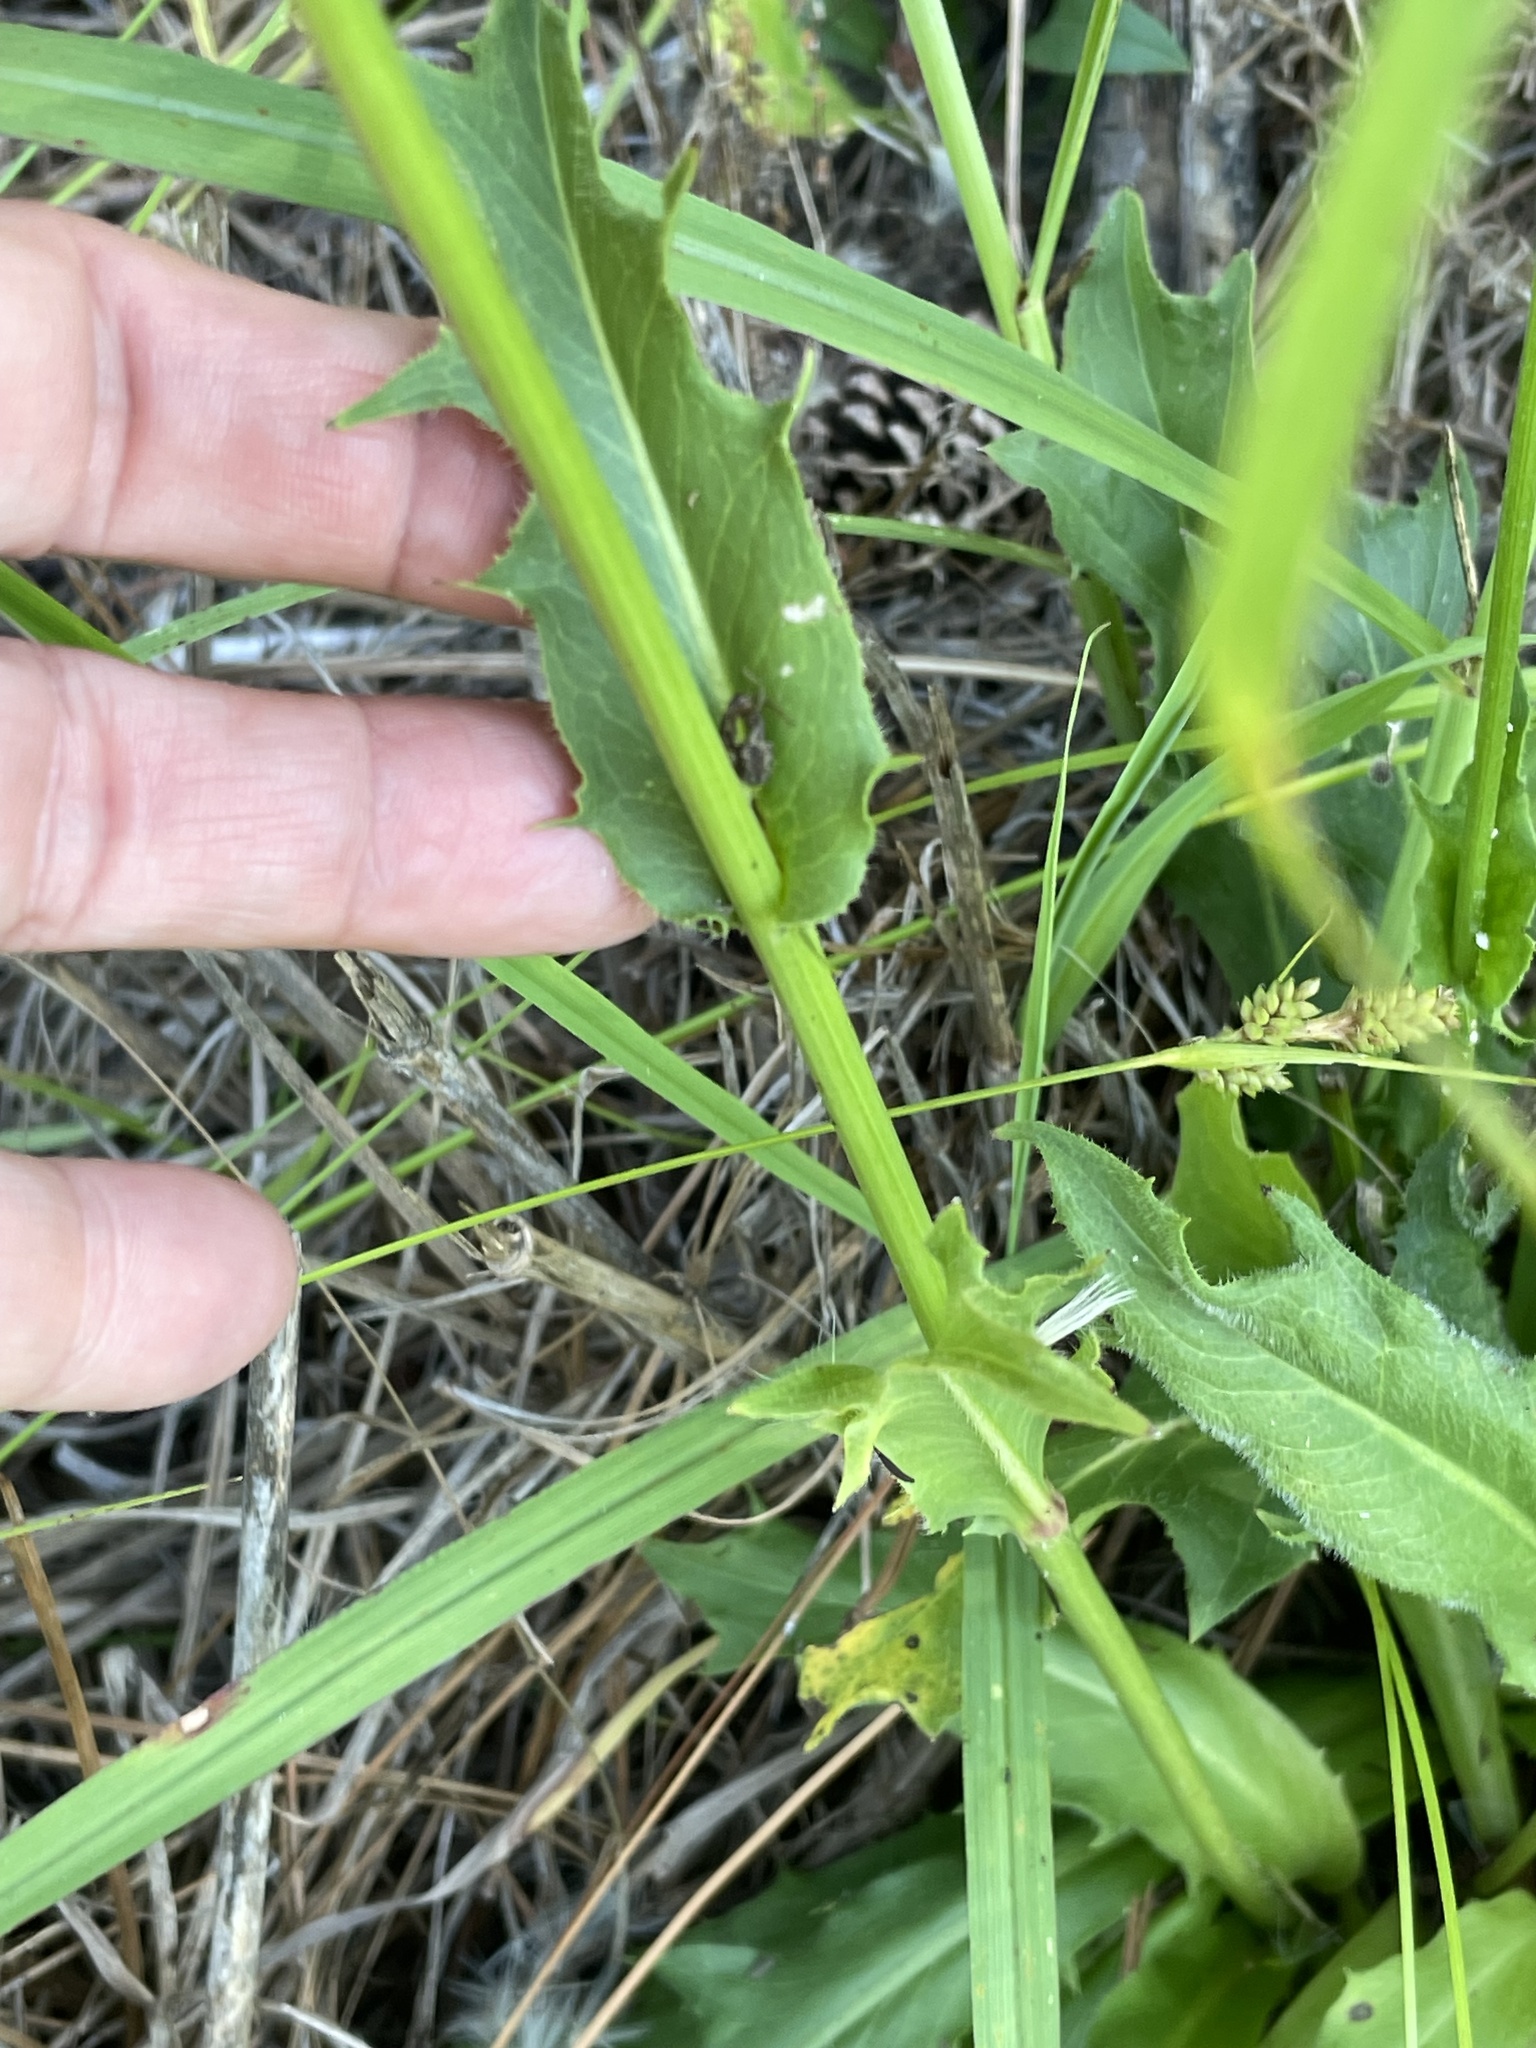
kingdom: Plantae
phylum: Tracheophyta
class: Magnoliopsida
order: Asterales
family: Asteraceae
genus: Hypochaeris
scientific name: Hypochaeris chillensis
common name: Brazilian cat's ear
